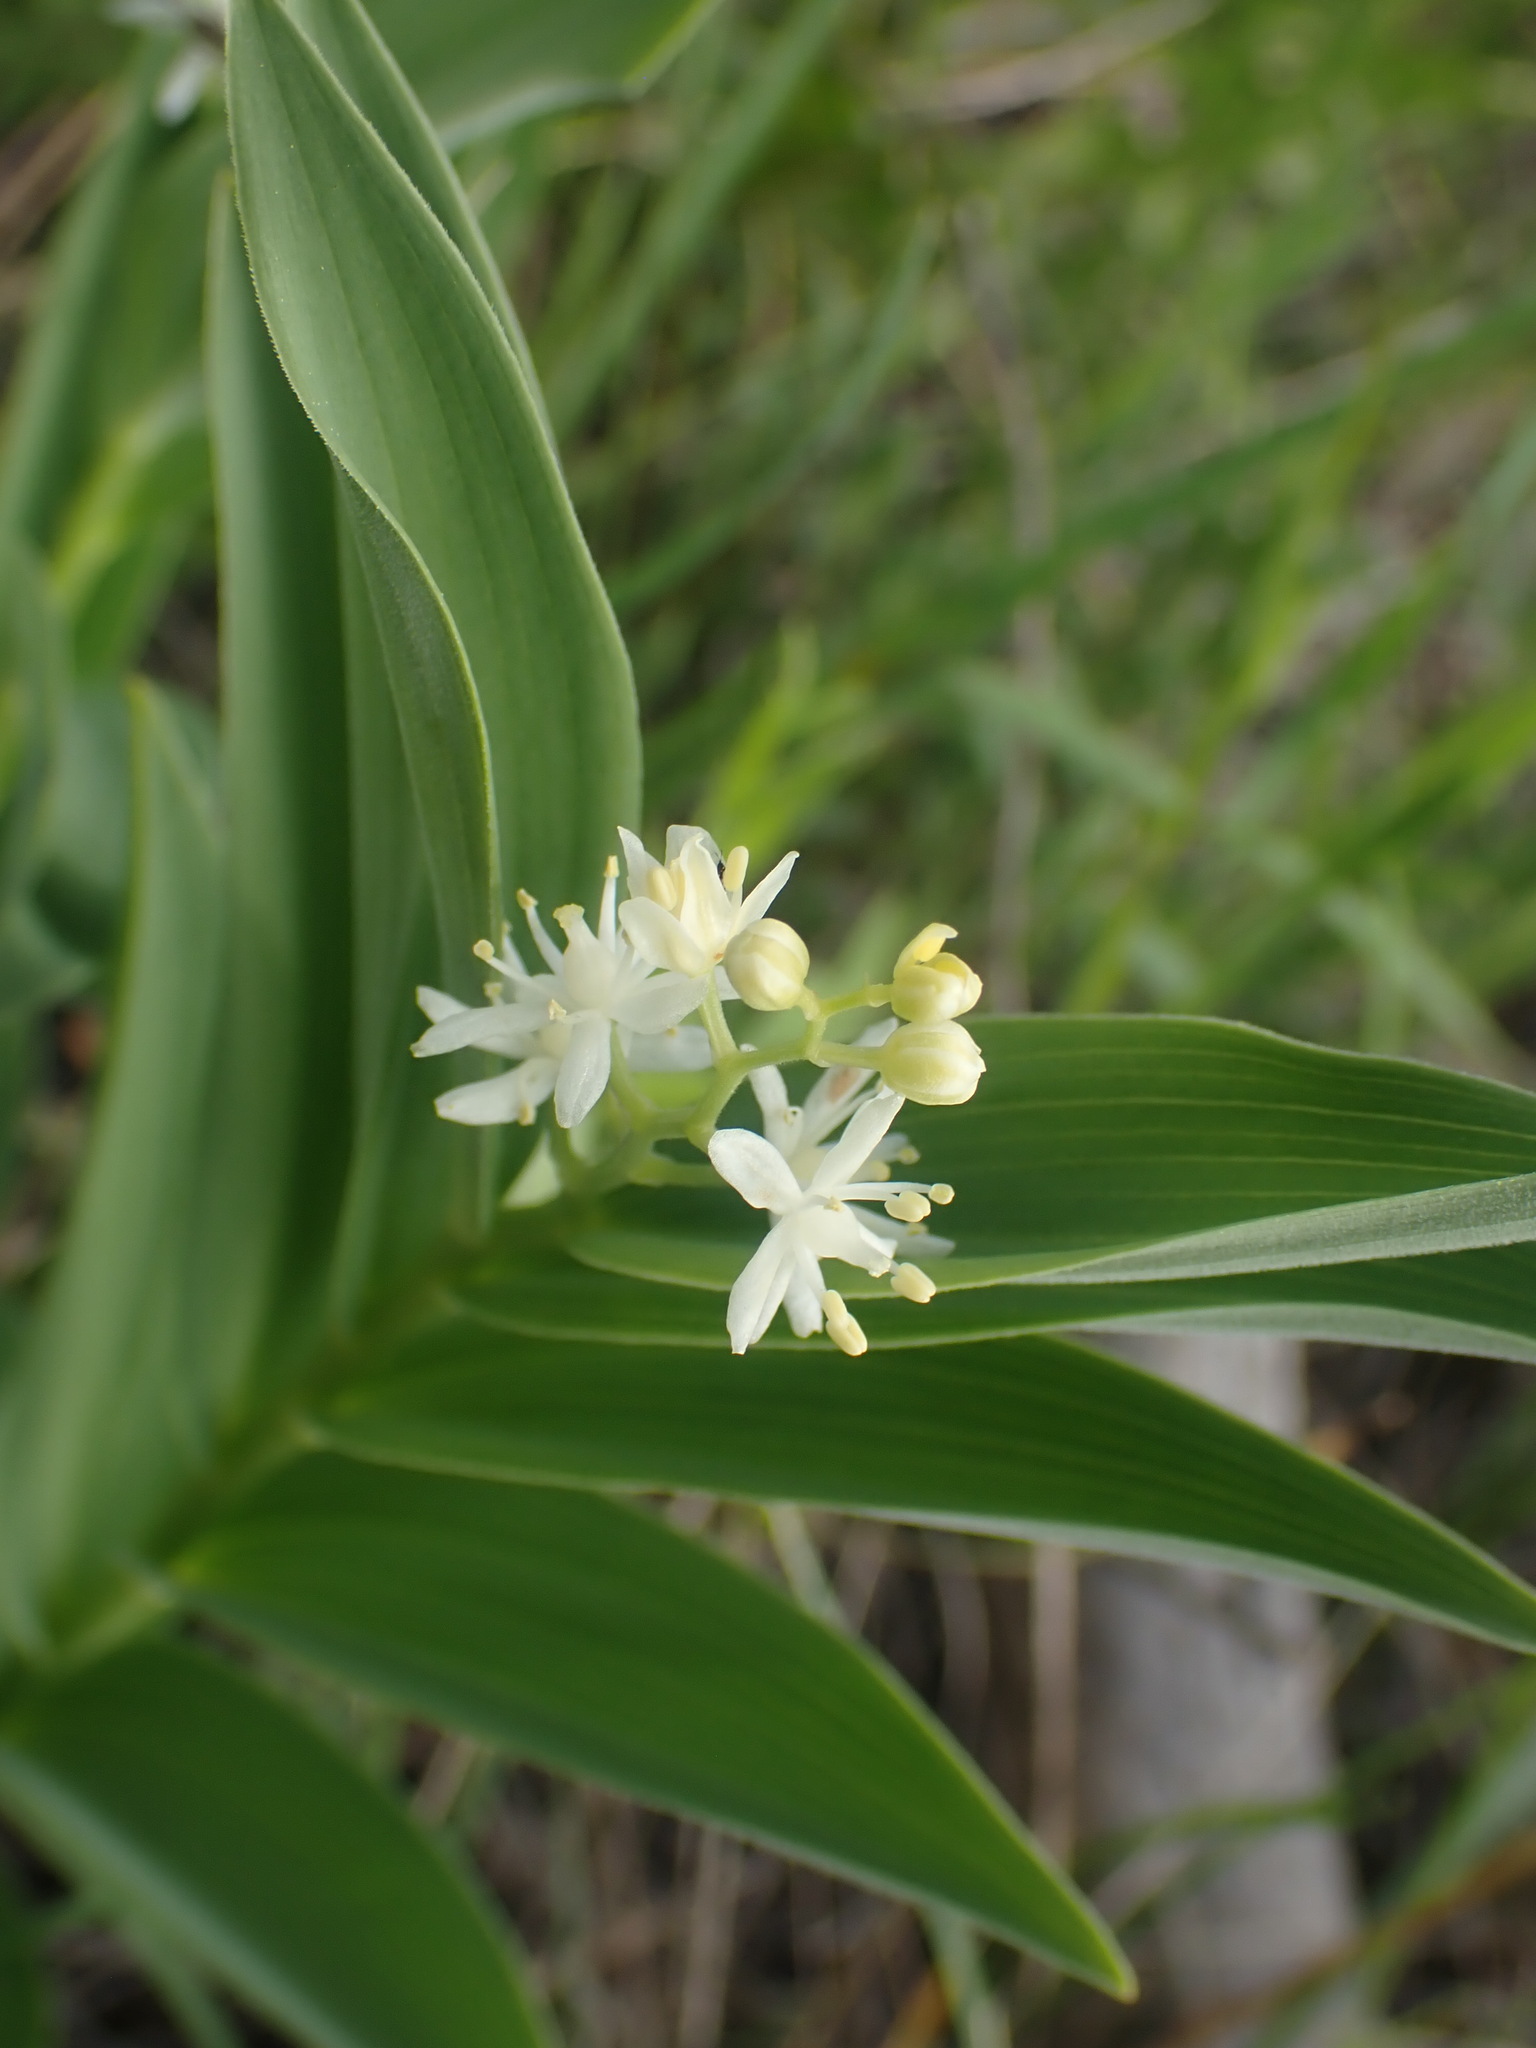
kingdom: Plantae
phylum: Tracheophyta
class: Liliopsida
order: Asparagales
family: Asparagaceae
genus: Maianthemum
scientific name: Maianthemum stellatum
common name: Little false solomon's seal
